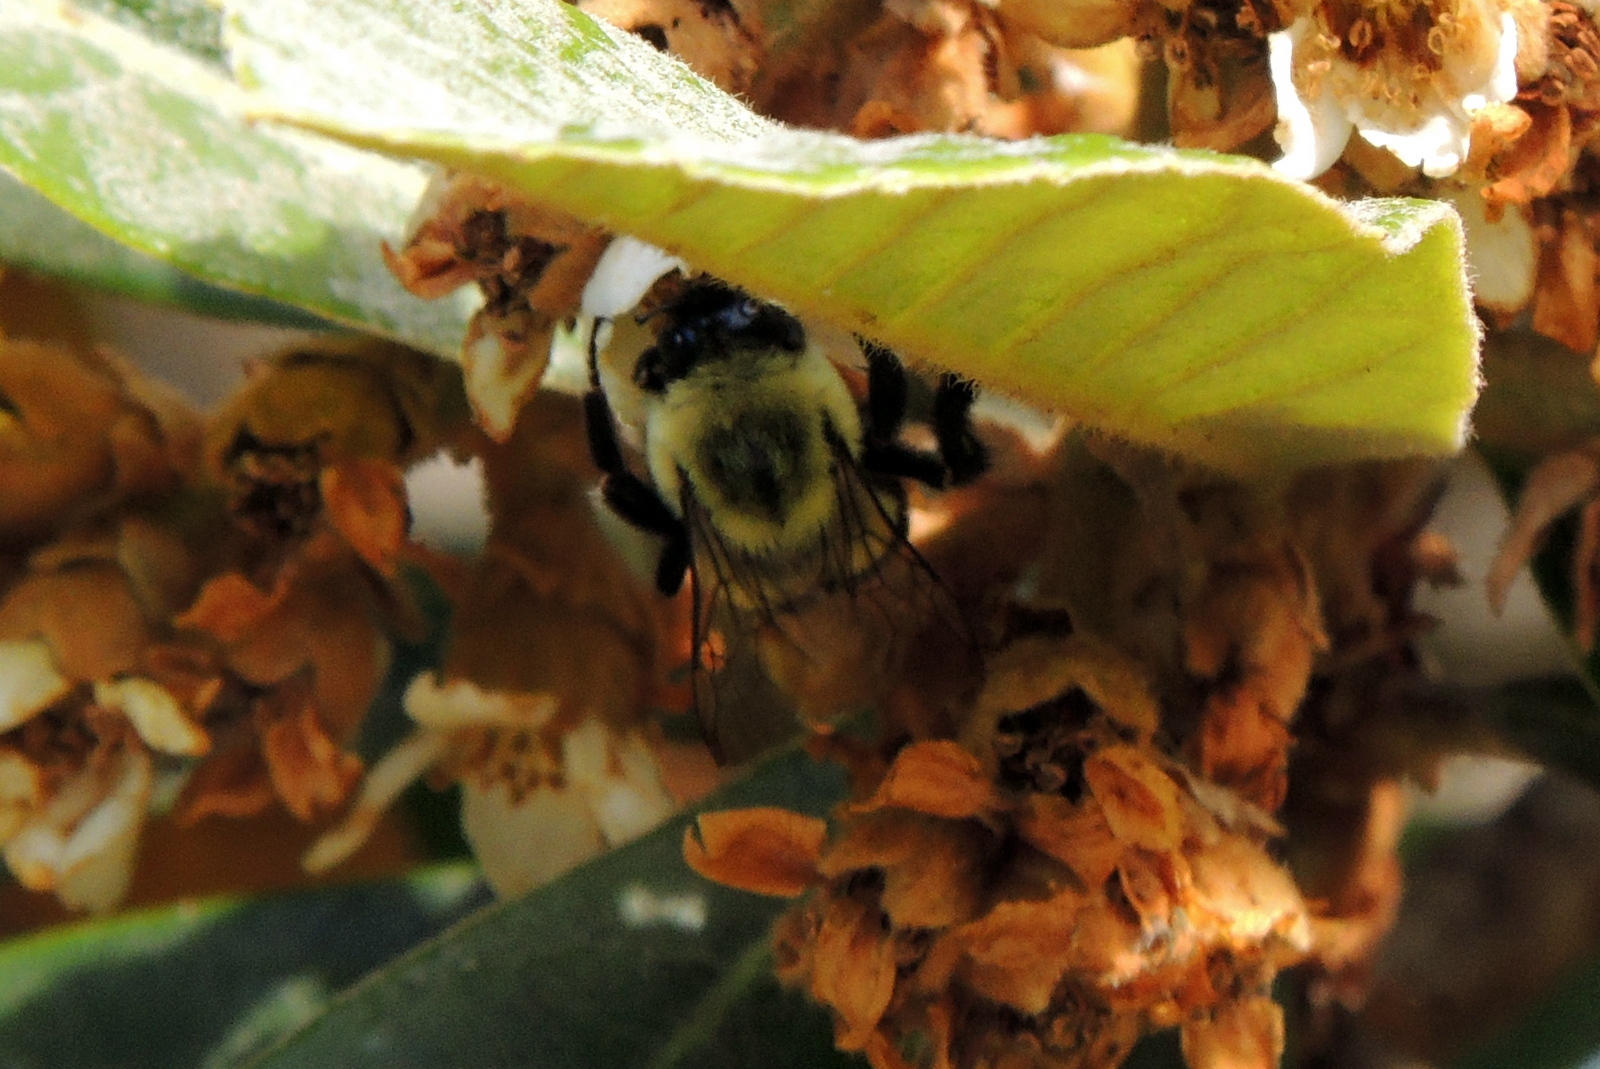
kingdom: Animalia
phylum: Arthropoda
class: Insecta
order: Hymenoptera
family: Apidae
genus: Bombus
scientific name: Bombus impatiens
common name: Common eastern bumble bee
